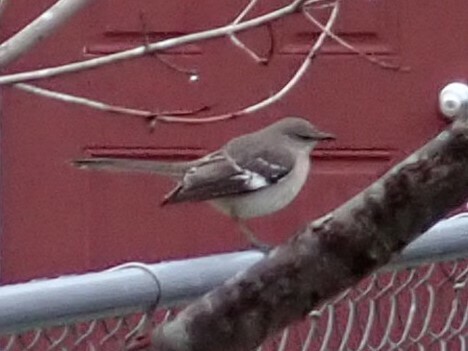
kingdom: Animalia
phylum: Chordata
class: Aves
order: Passeriformes
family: Mimidae
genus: Mimus
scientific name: Mimus polyglottos
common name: Northern mockingbird
